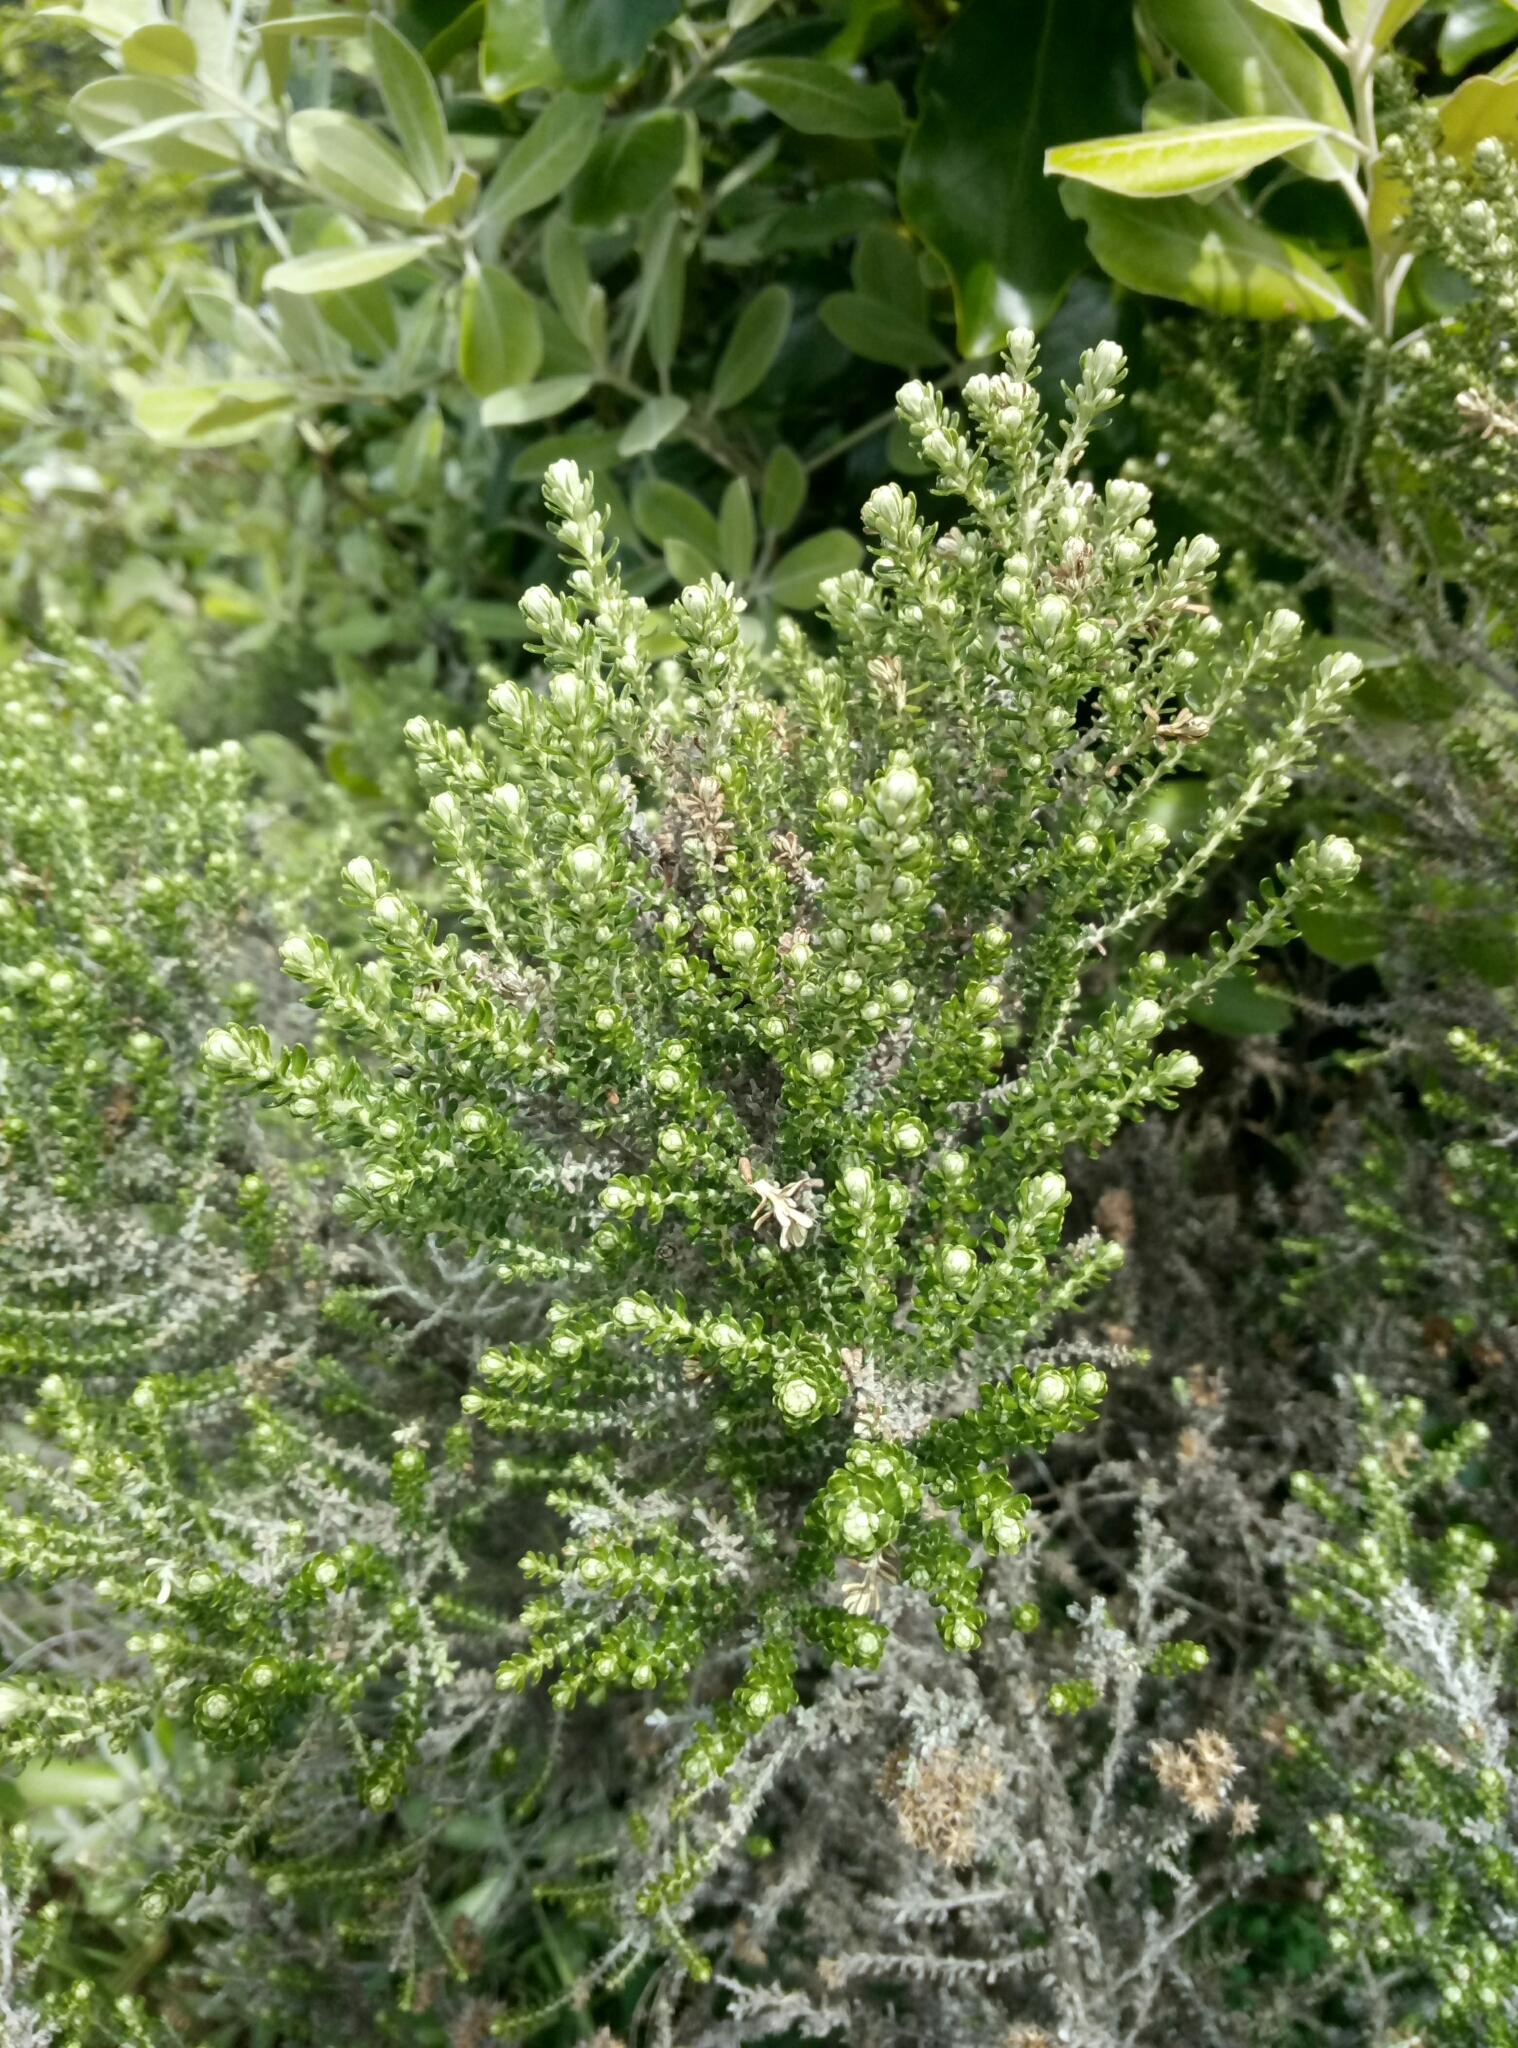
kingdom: Plantae
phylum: Tracheophyta
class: Magnoliopsida
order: Asterales
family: Asteraceae
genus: Ozothamnus
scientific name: Ozothamnus leptophyllus
